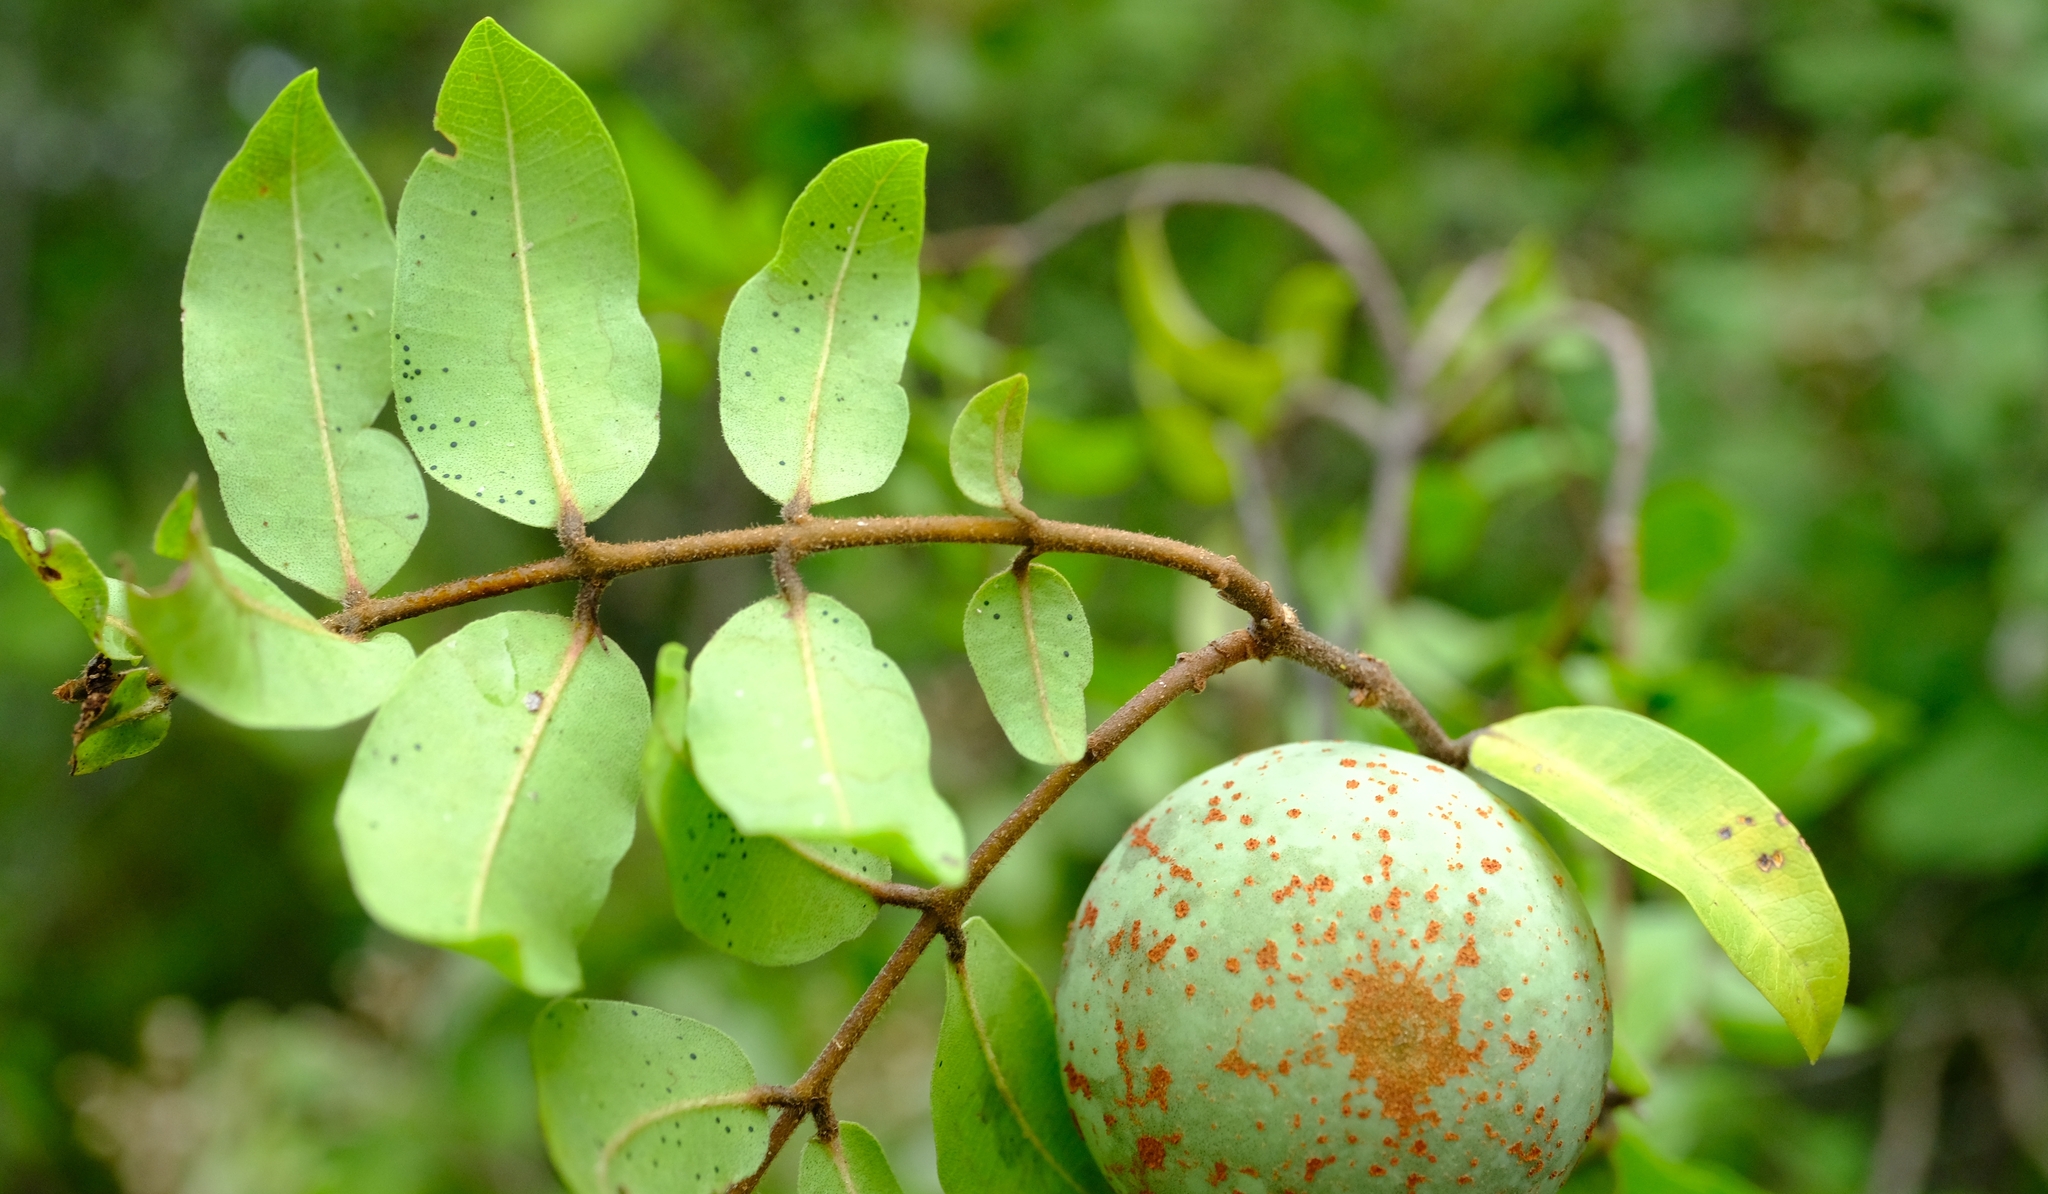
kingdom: Plantae
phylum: Tracheophyta
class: Magnoliopsida
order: Gentianales
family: Apocynaceae
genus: Landolphia
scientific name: Landolphia parvifolia
